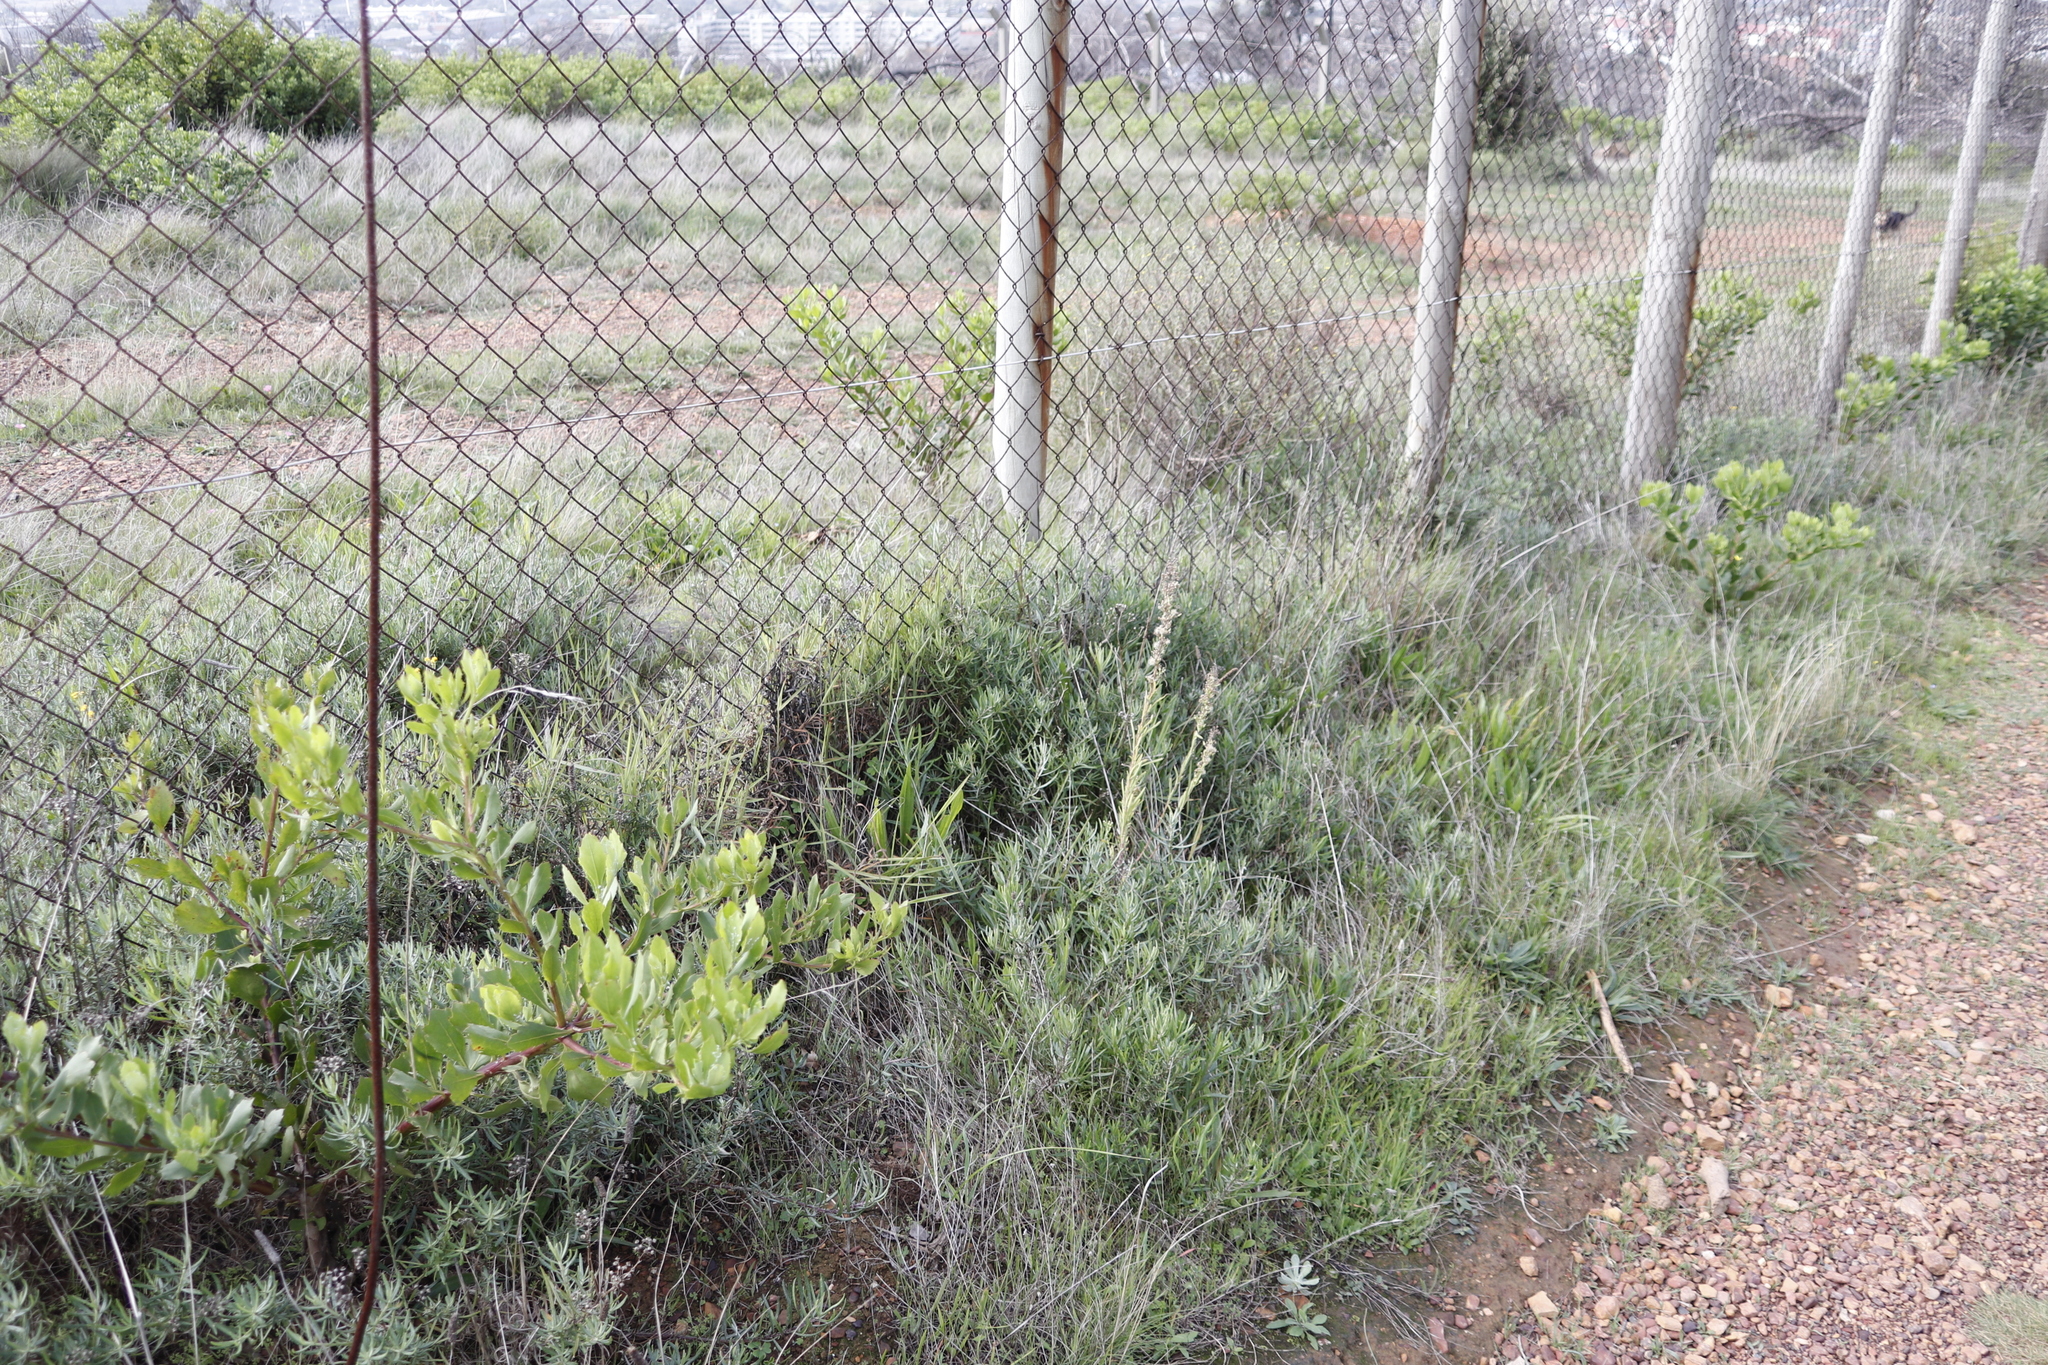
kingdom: Plantae
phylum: Tracheophyta
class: Magnoliopsida
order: Asterales
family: Asteraceae
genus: Senecio
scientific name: Senecio rosmarinifolius
